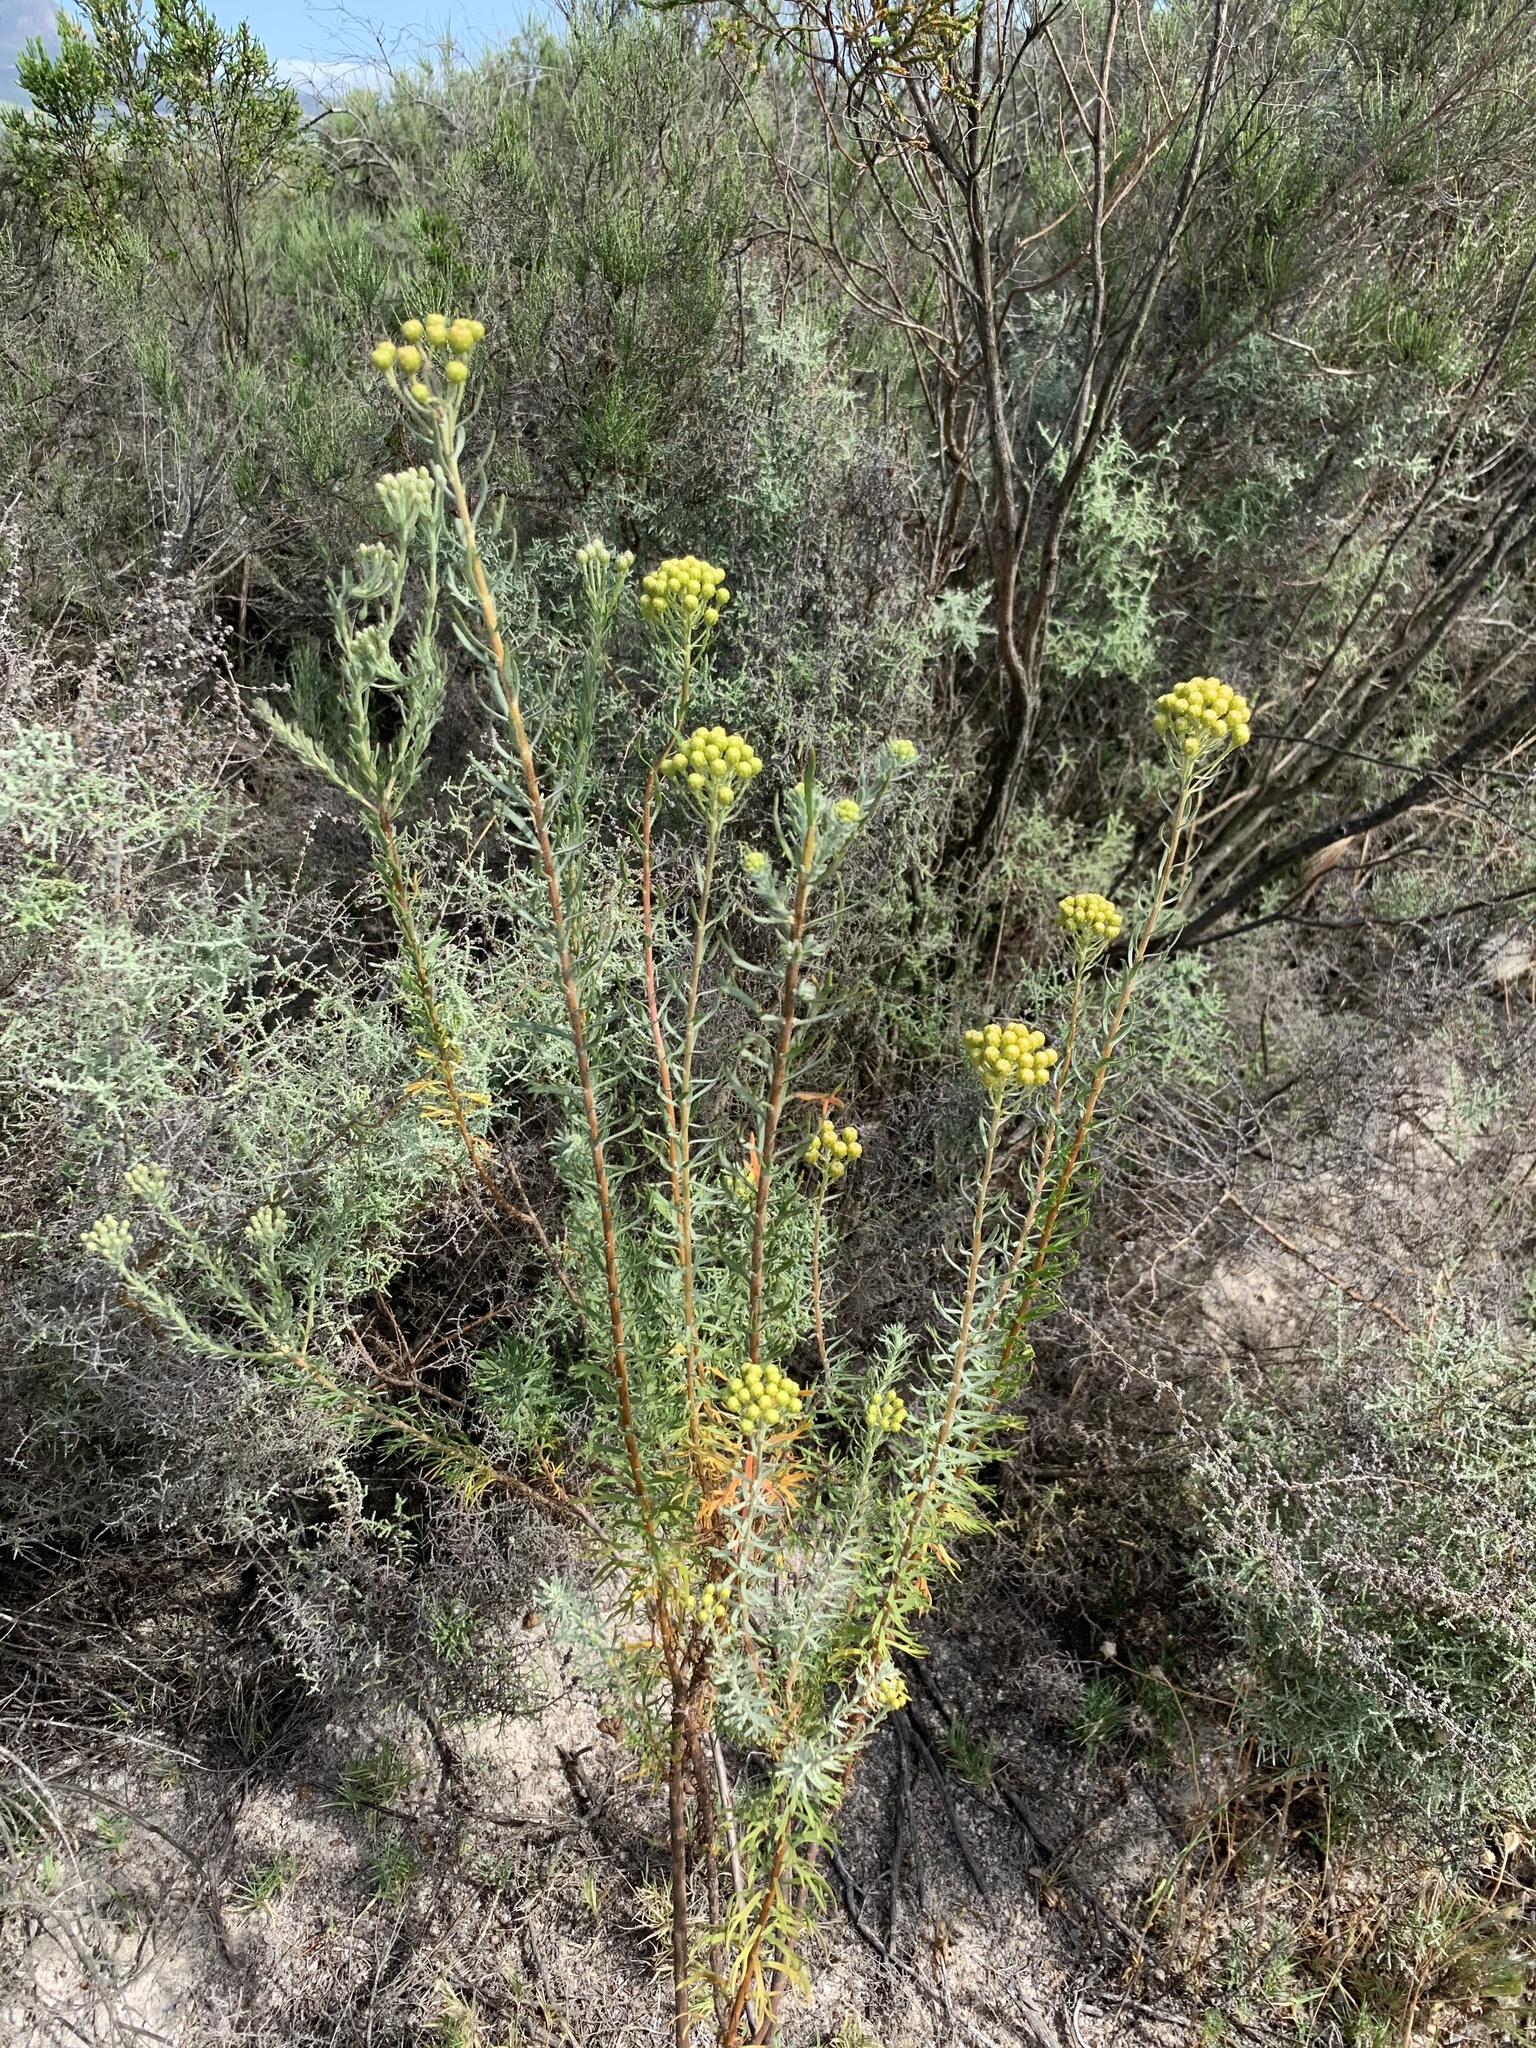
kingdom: Plantae
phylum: Tracheophyta
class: Magnoliopsida
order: Asterales
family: Asteraceae
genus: Athanasia
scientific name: Athanasia trifurcata
